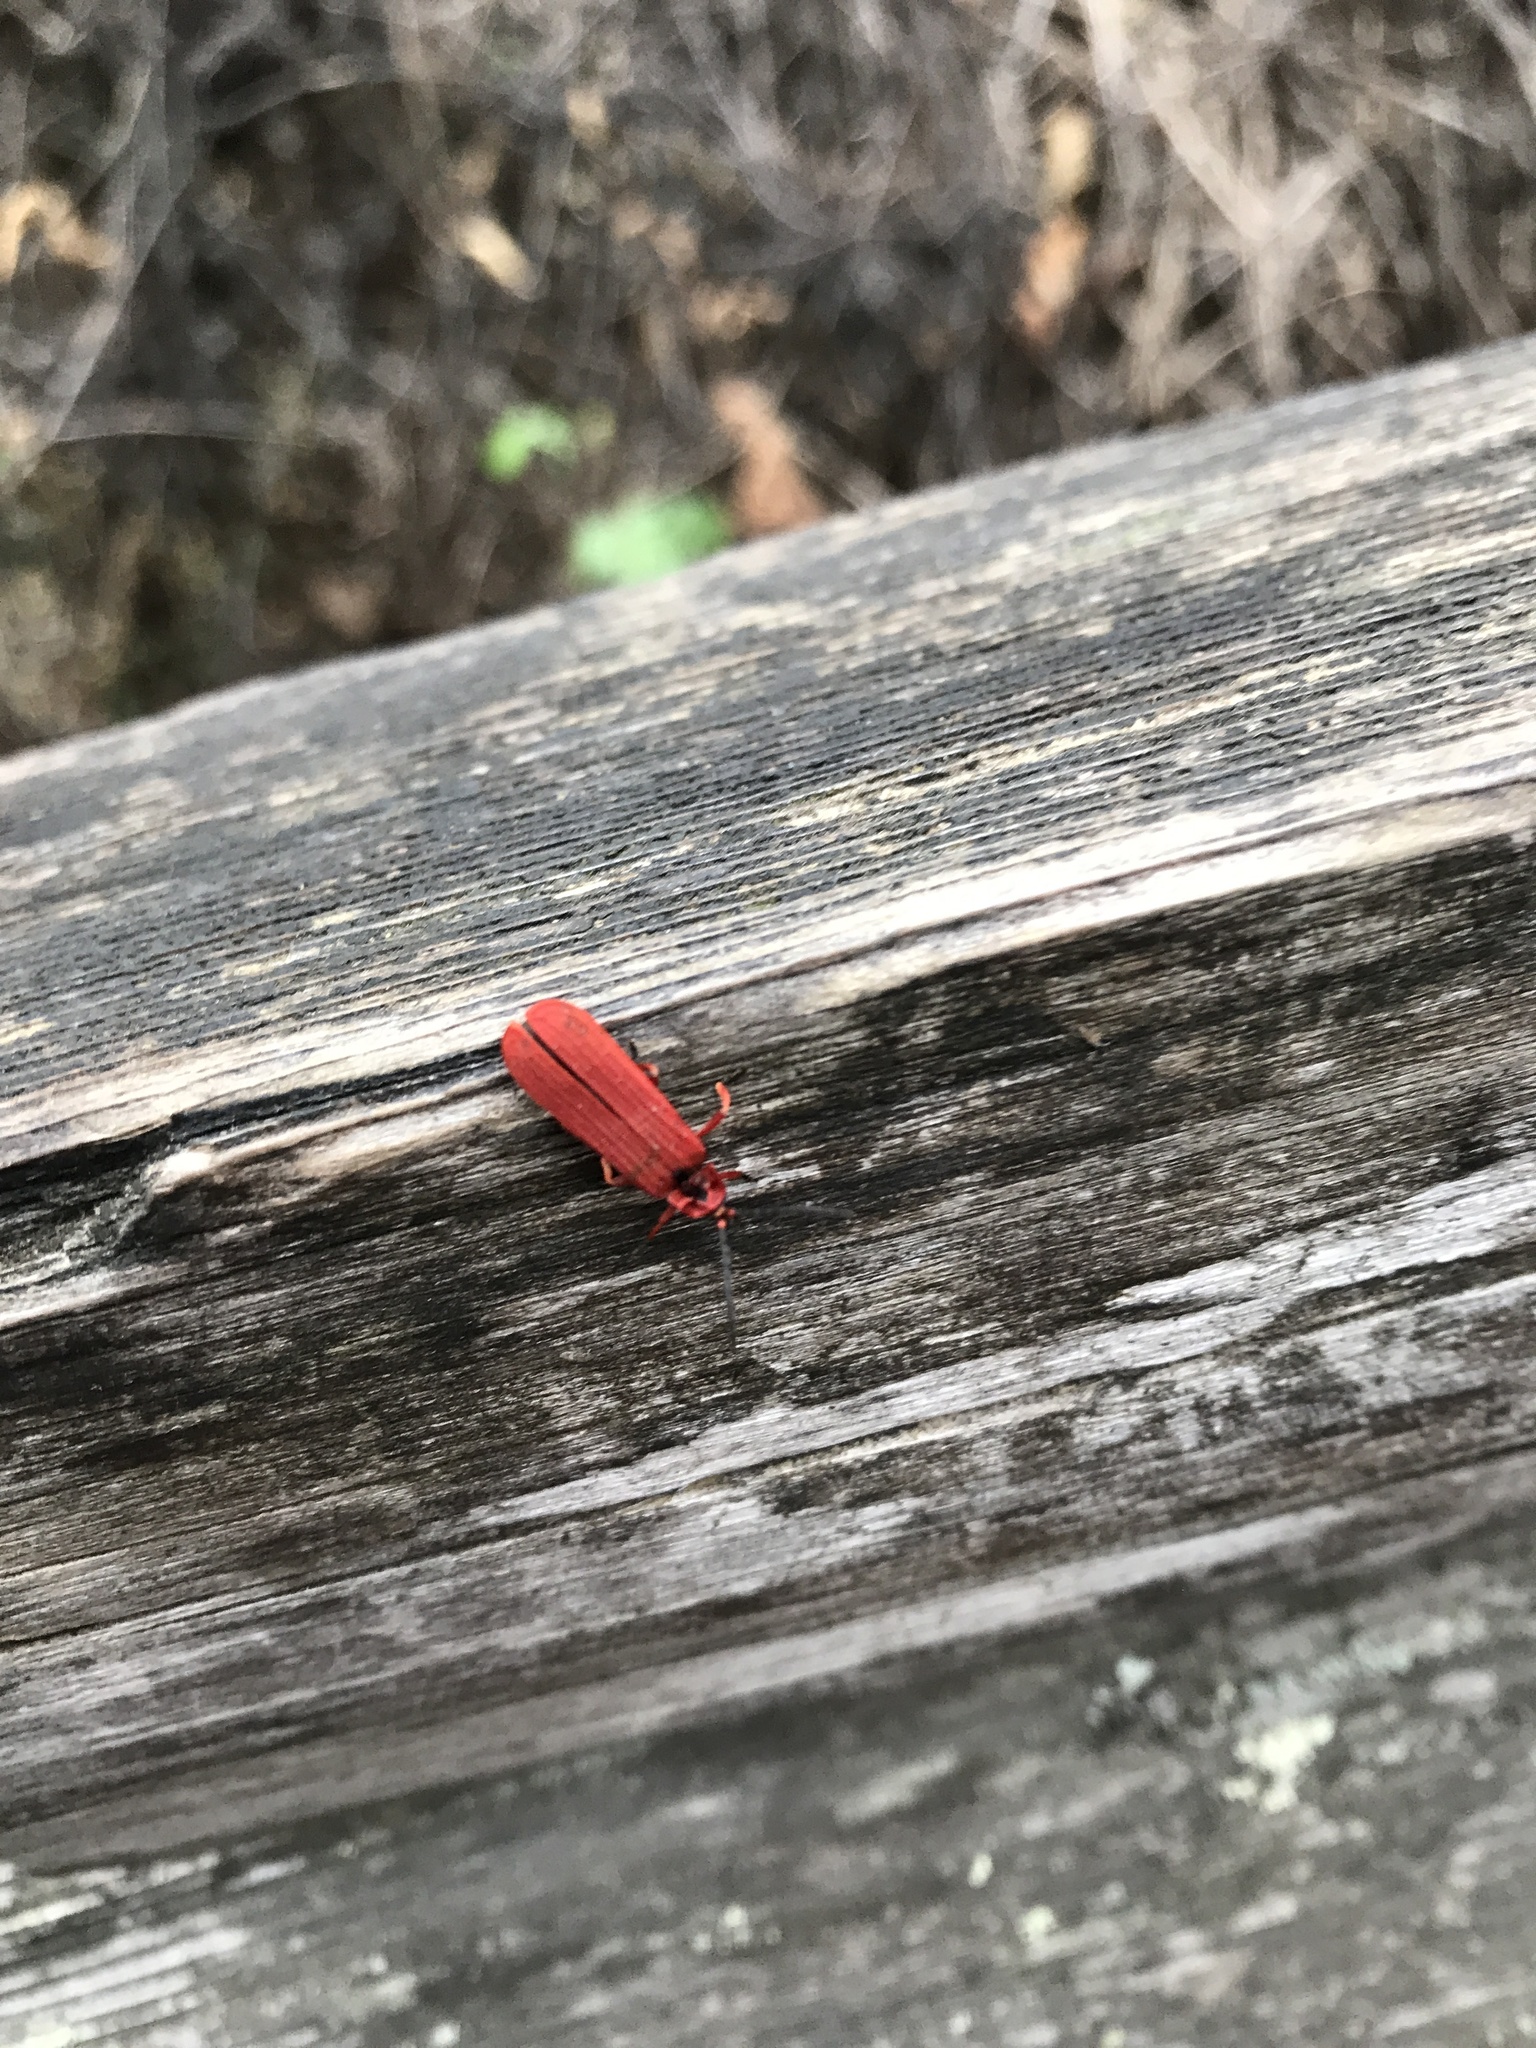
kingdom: Animalia
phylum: Arthropoda
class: Insecta
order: Coleoptera
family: Lycidae
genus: Dictyoptera
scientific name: Dictyoptera simplicipes
